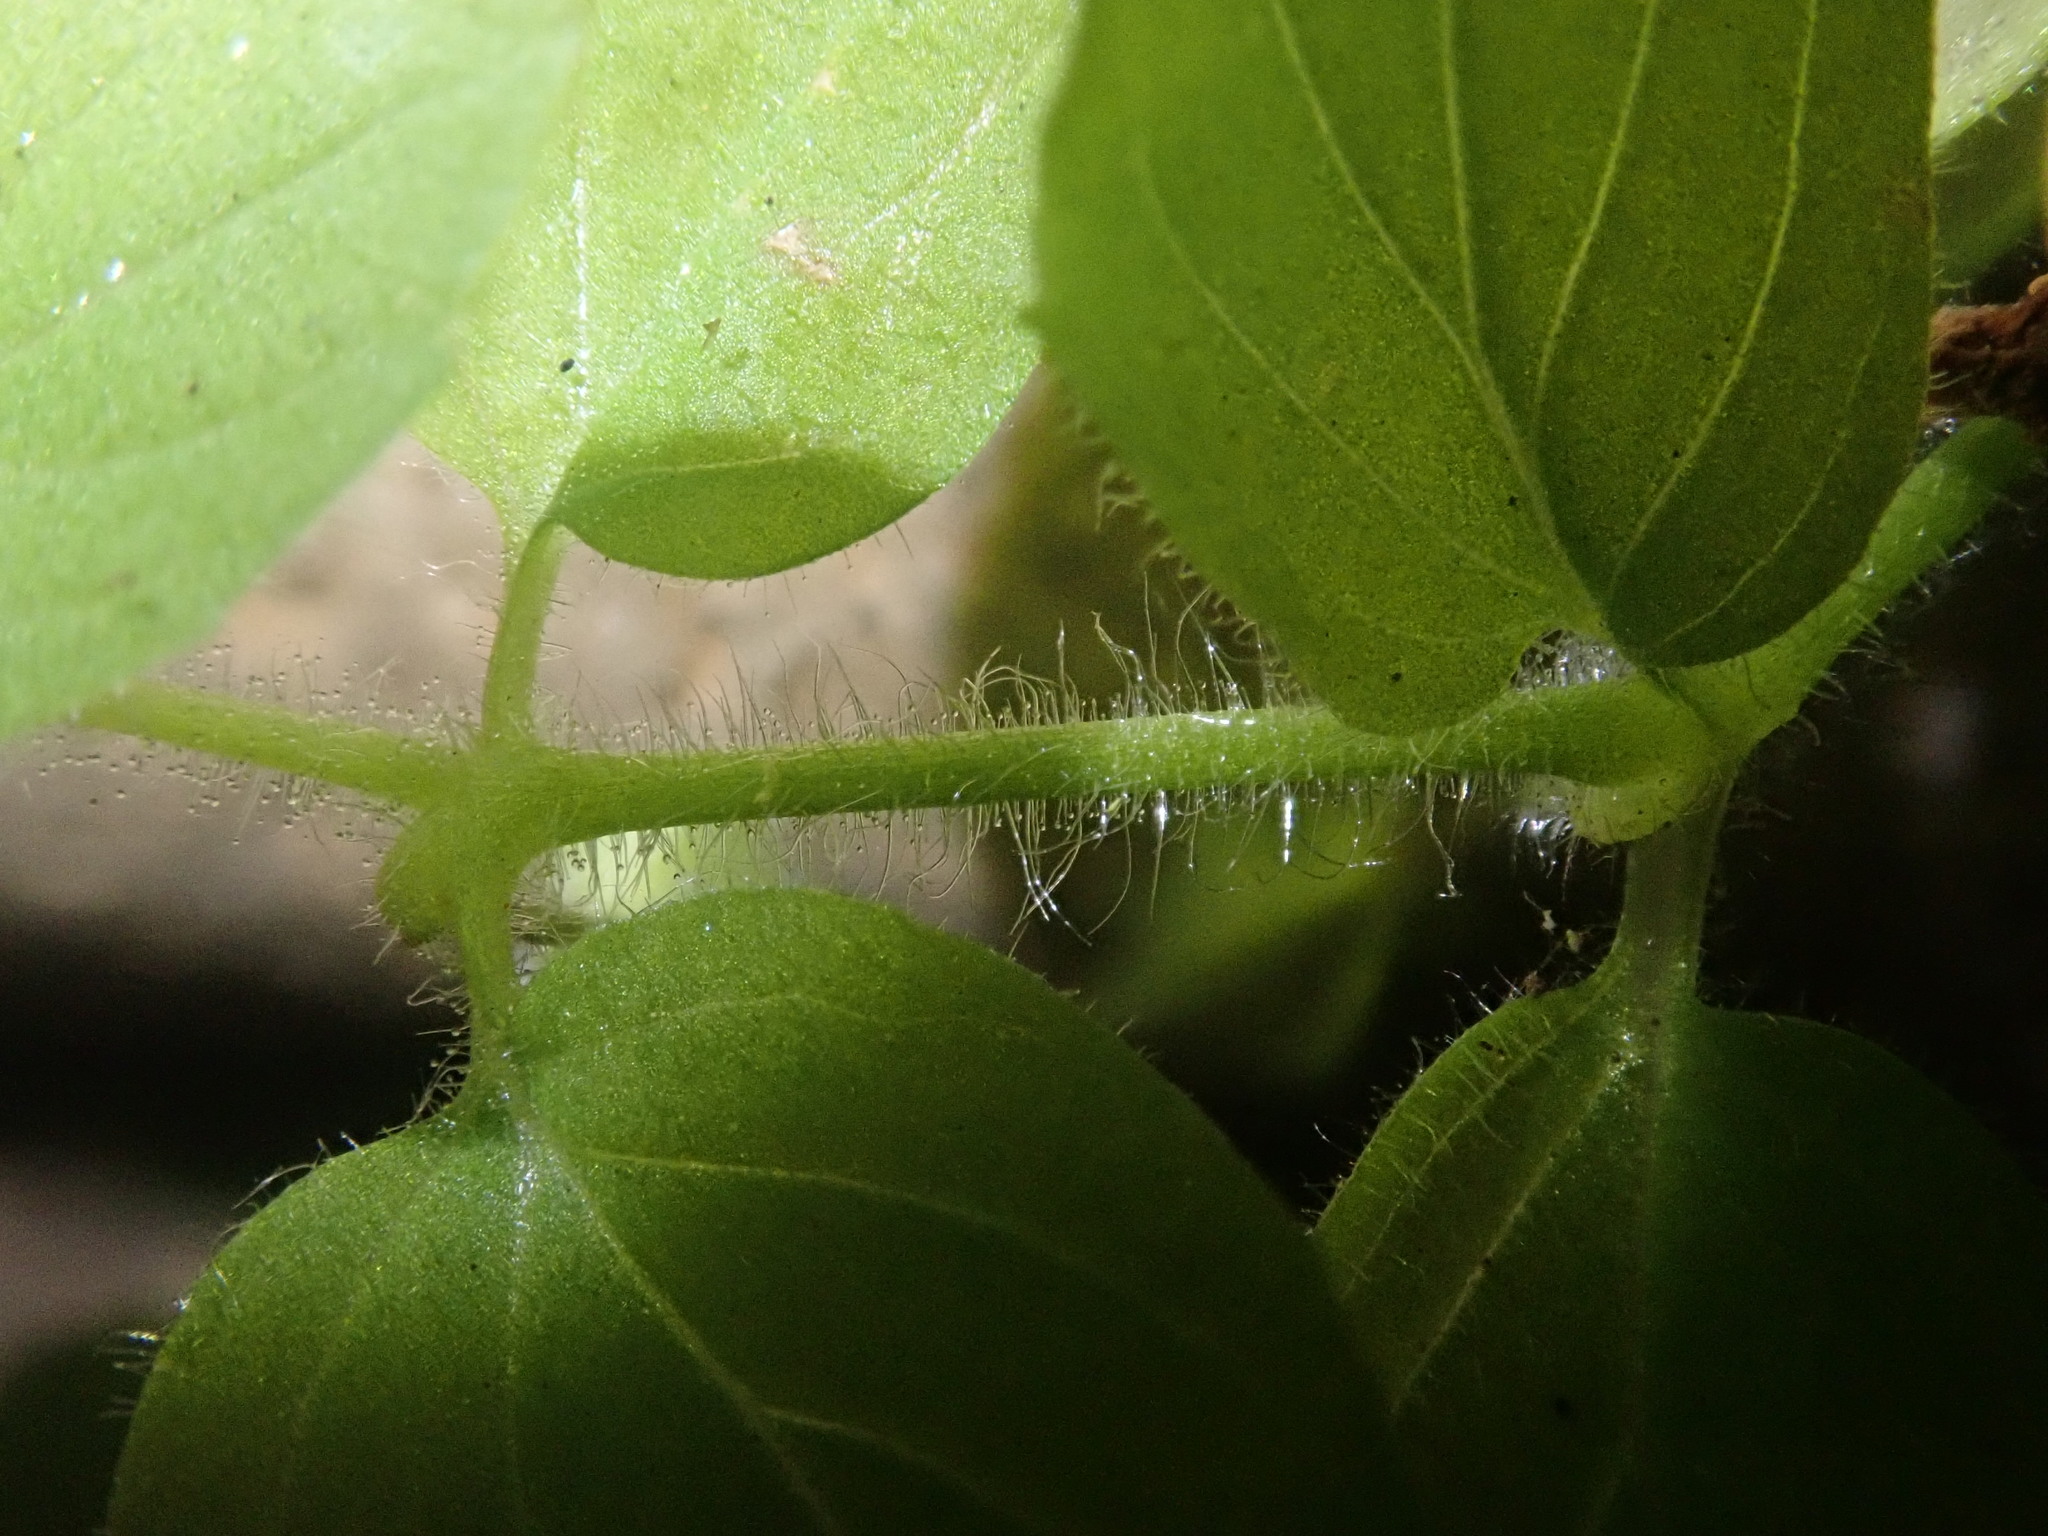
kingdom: Plantae
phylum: Tracheophyta
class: Magnoliopsida
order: Lamiales
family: Phrymaceae
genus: Erythranthe
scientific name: Erythranthe moschata
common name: Muskflower
